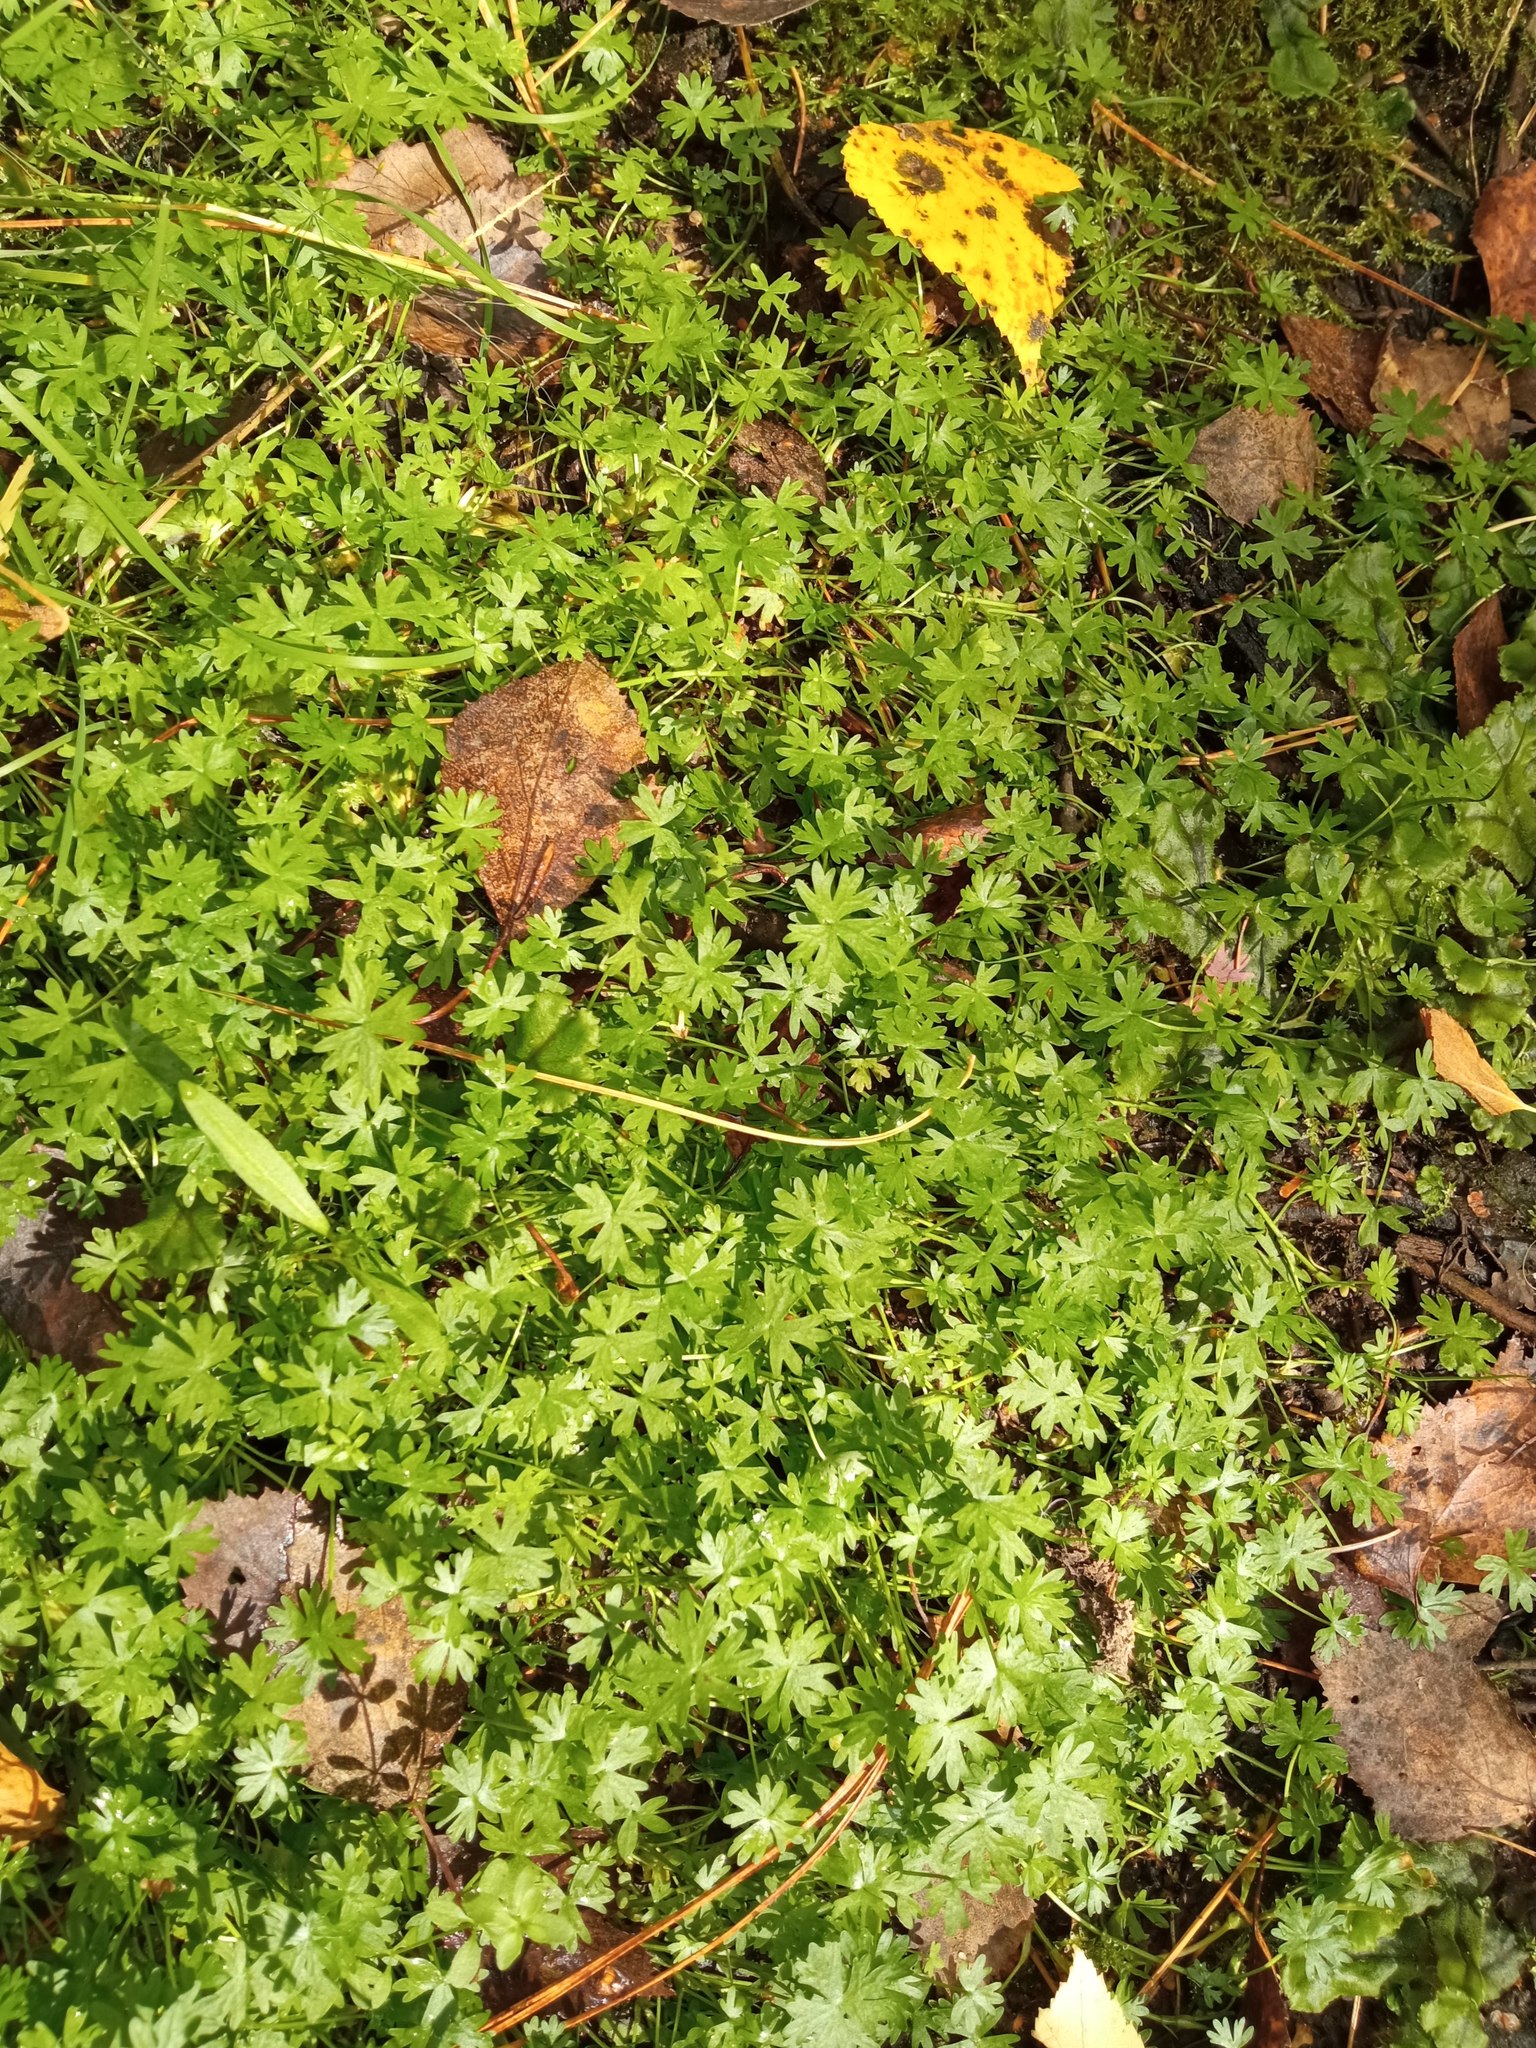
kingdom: Plantae
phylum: Tracheophyta
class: Magnoliopsida
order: Ranunculales
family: Ranunculaceae
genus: Ranunculus
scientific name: Ranunculus gmelinii
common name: Gmelin's buttercup
